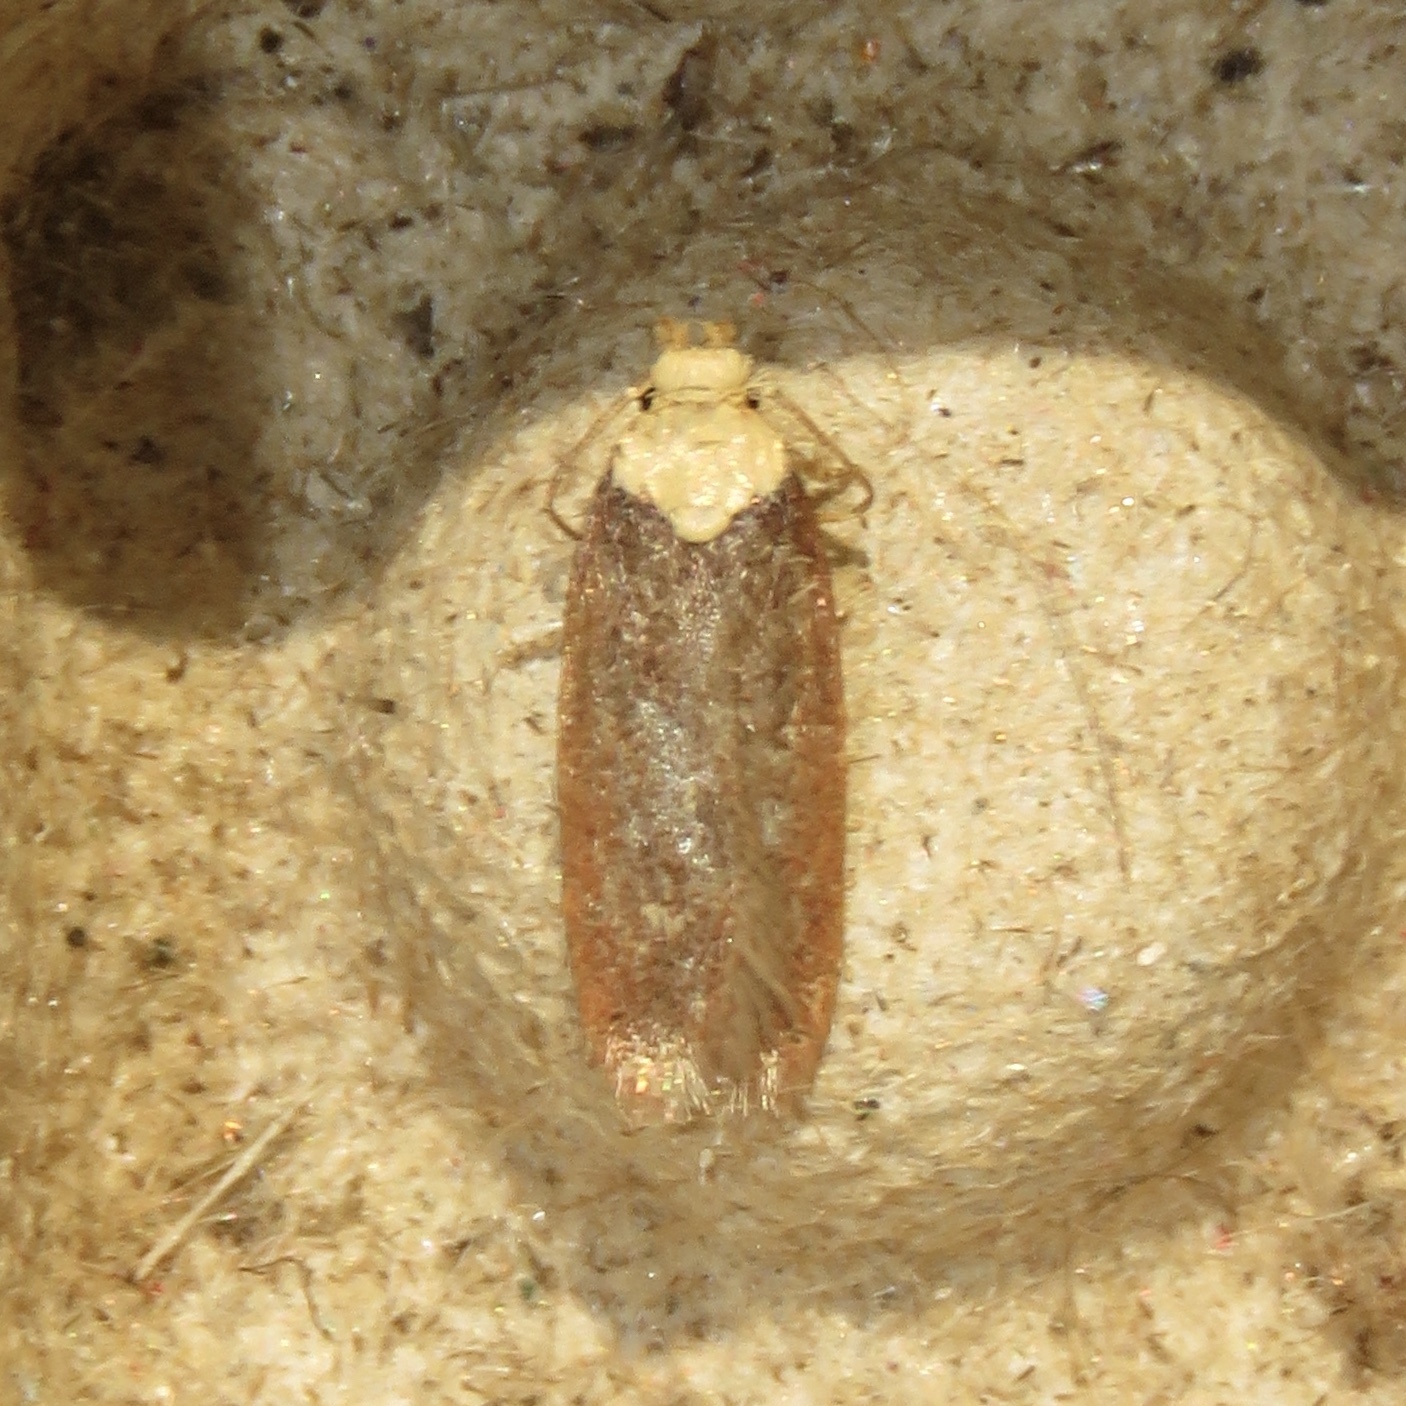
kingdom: Animalia
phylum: Arthropoda
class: Insecta
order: Lepidoptera
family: Depressariidae
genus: Depressaria
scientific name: Depressaria depressana
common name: Lost flat-body
